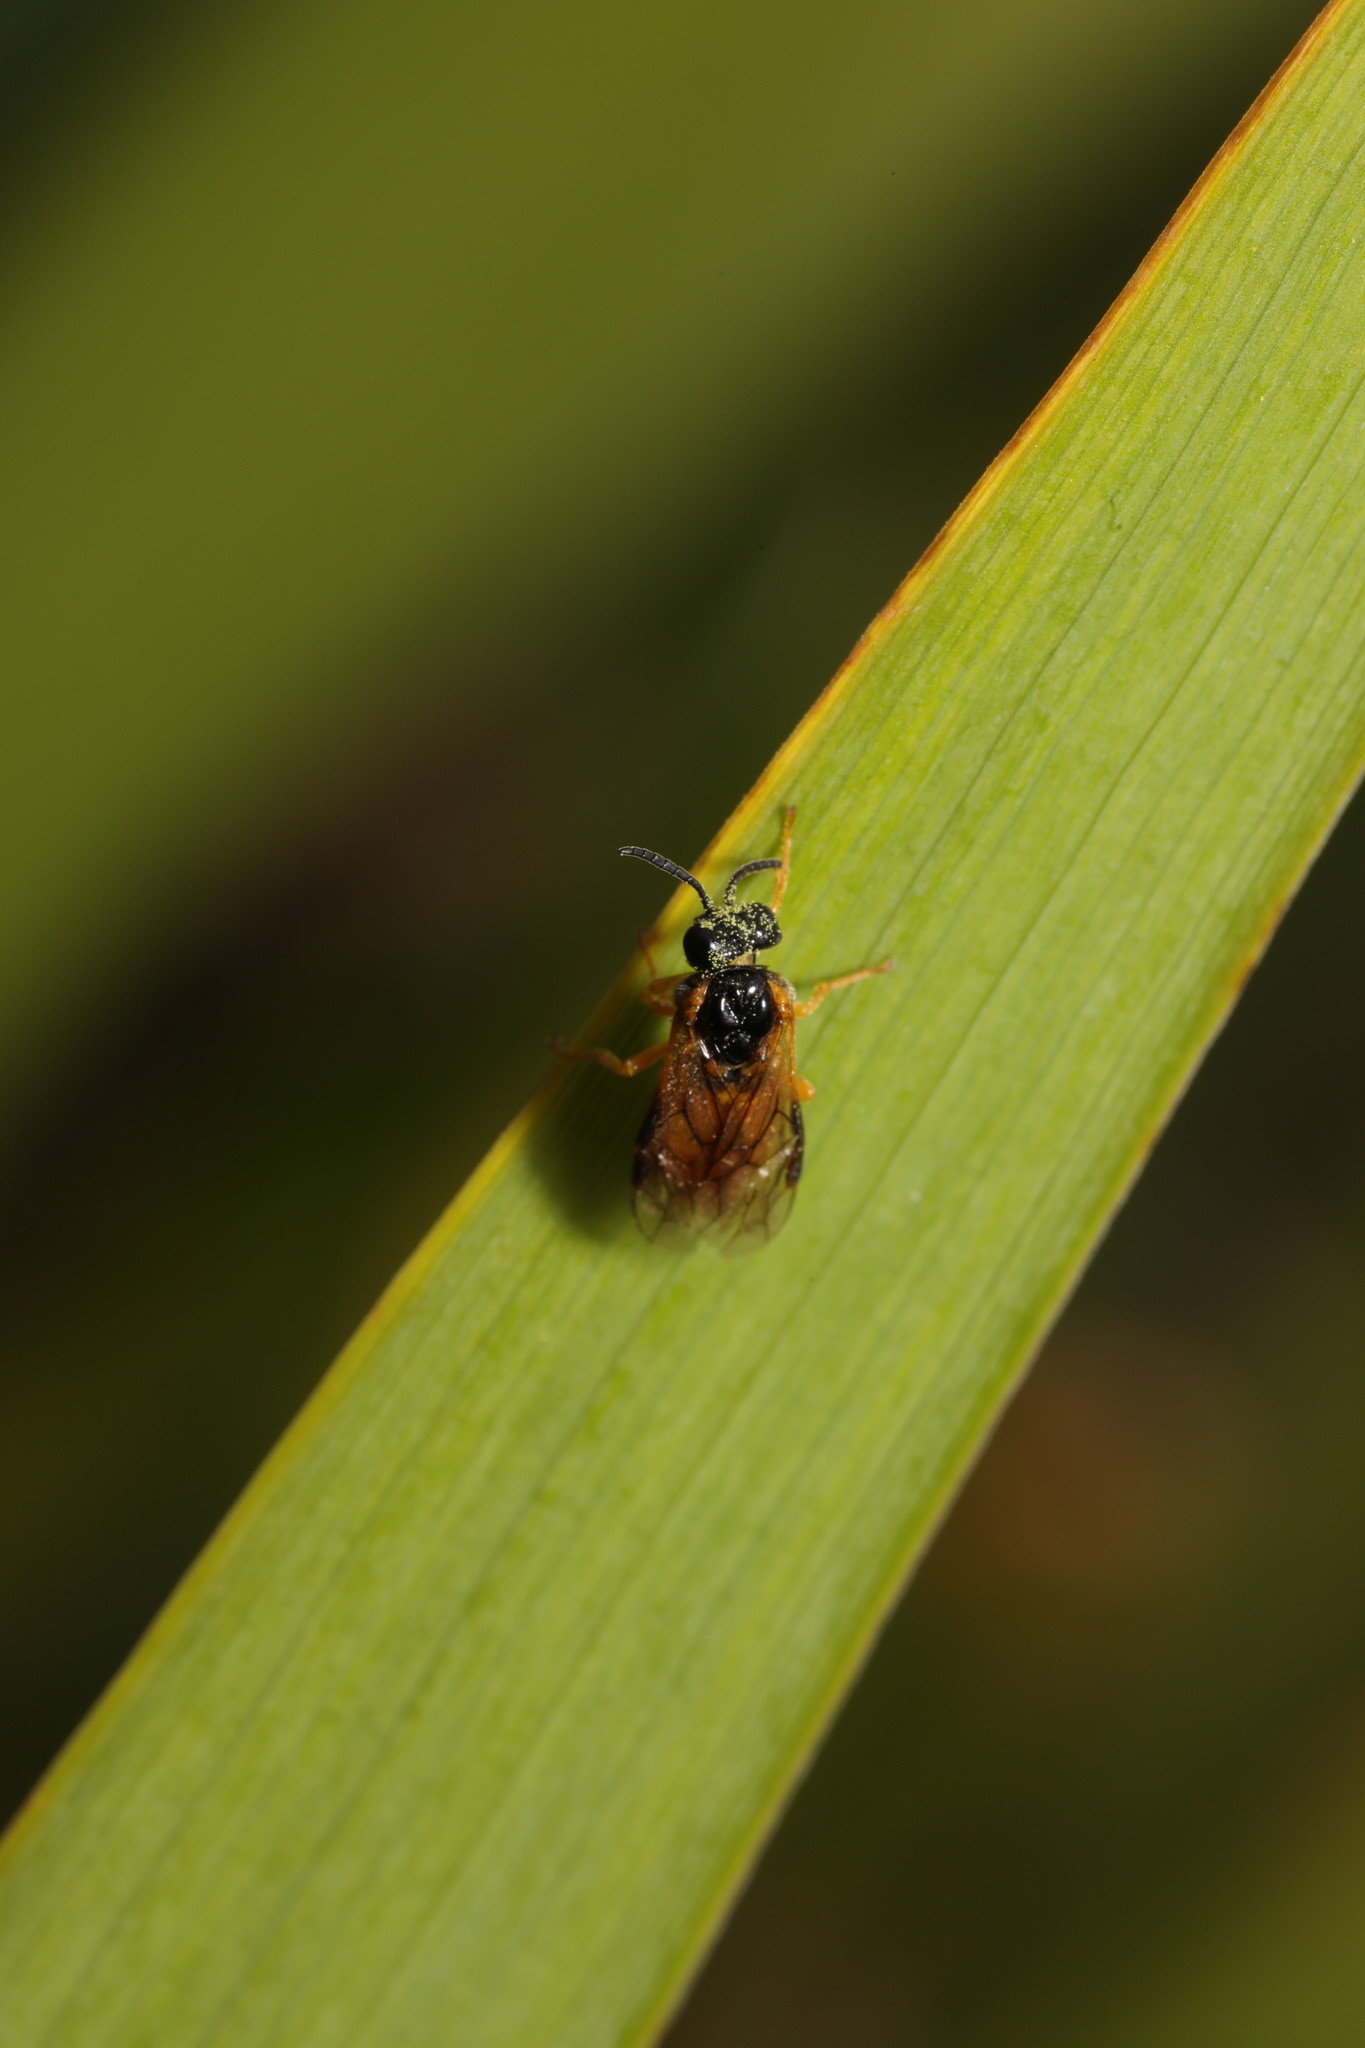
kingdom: Animalia
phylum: Arthropoda
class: Insecta
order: Hymenoptera
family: Tenthredinidae
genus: Selandria
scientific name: Selandria serva
